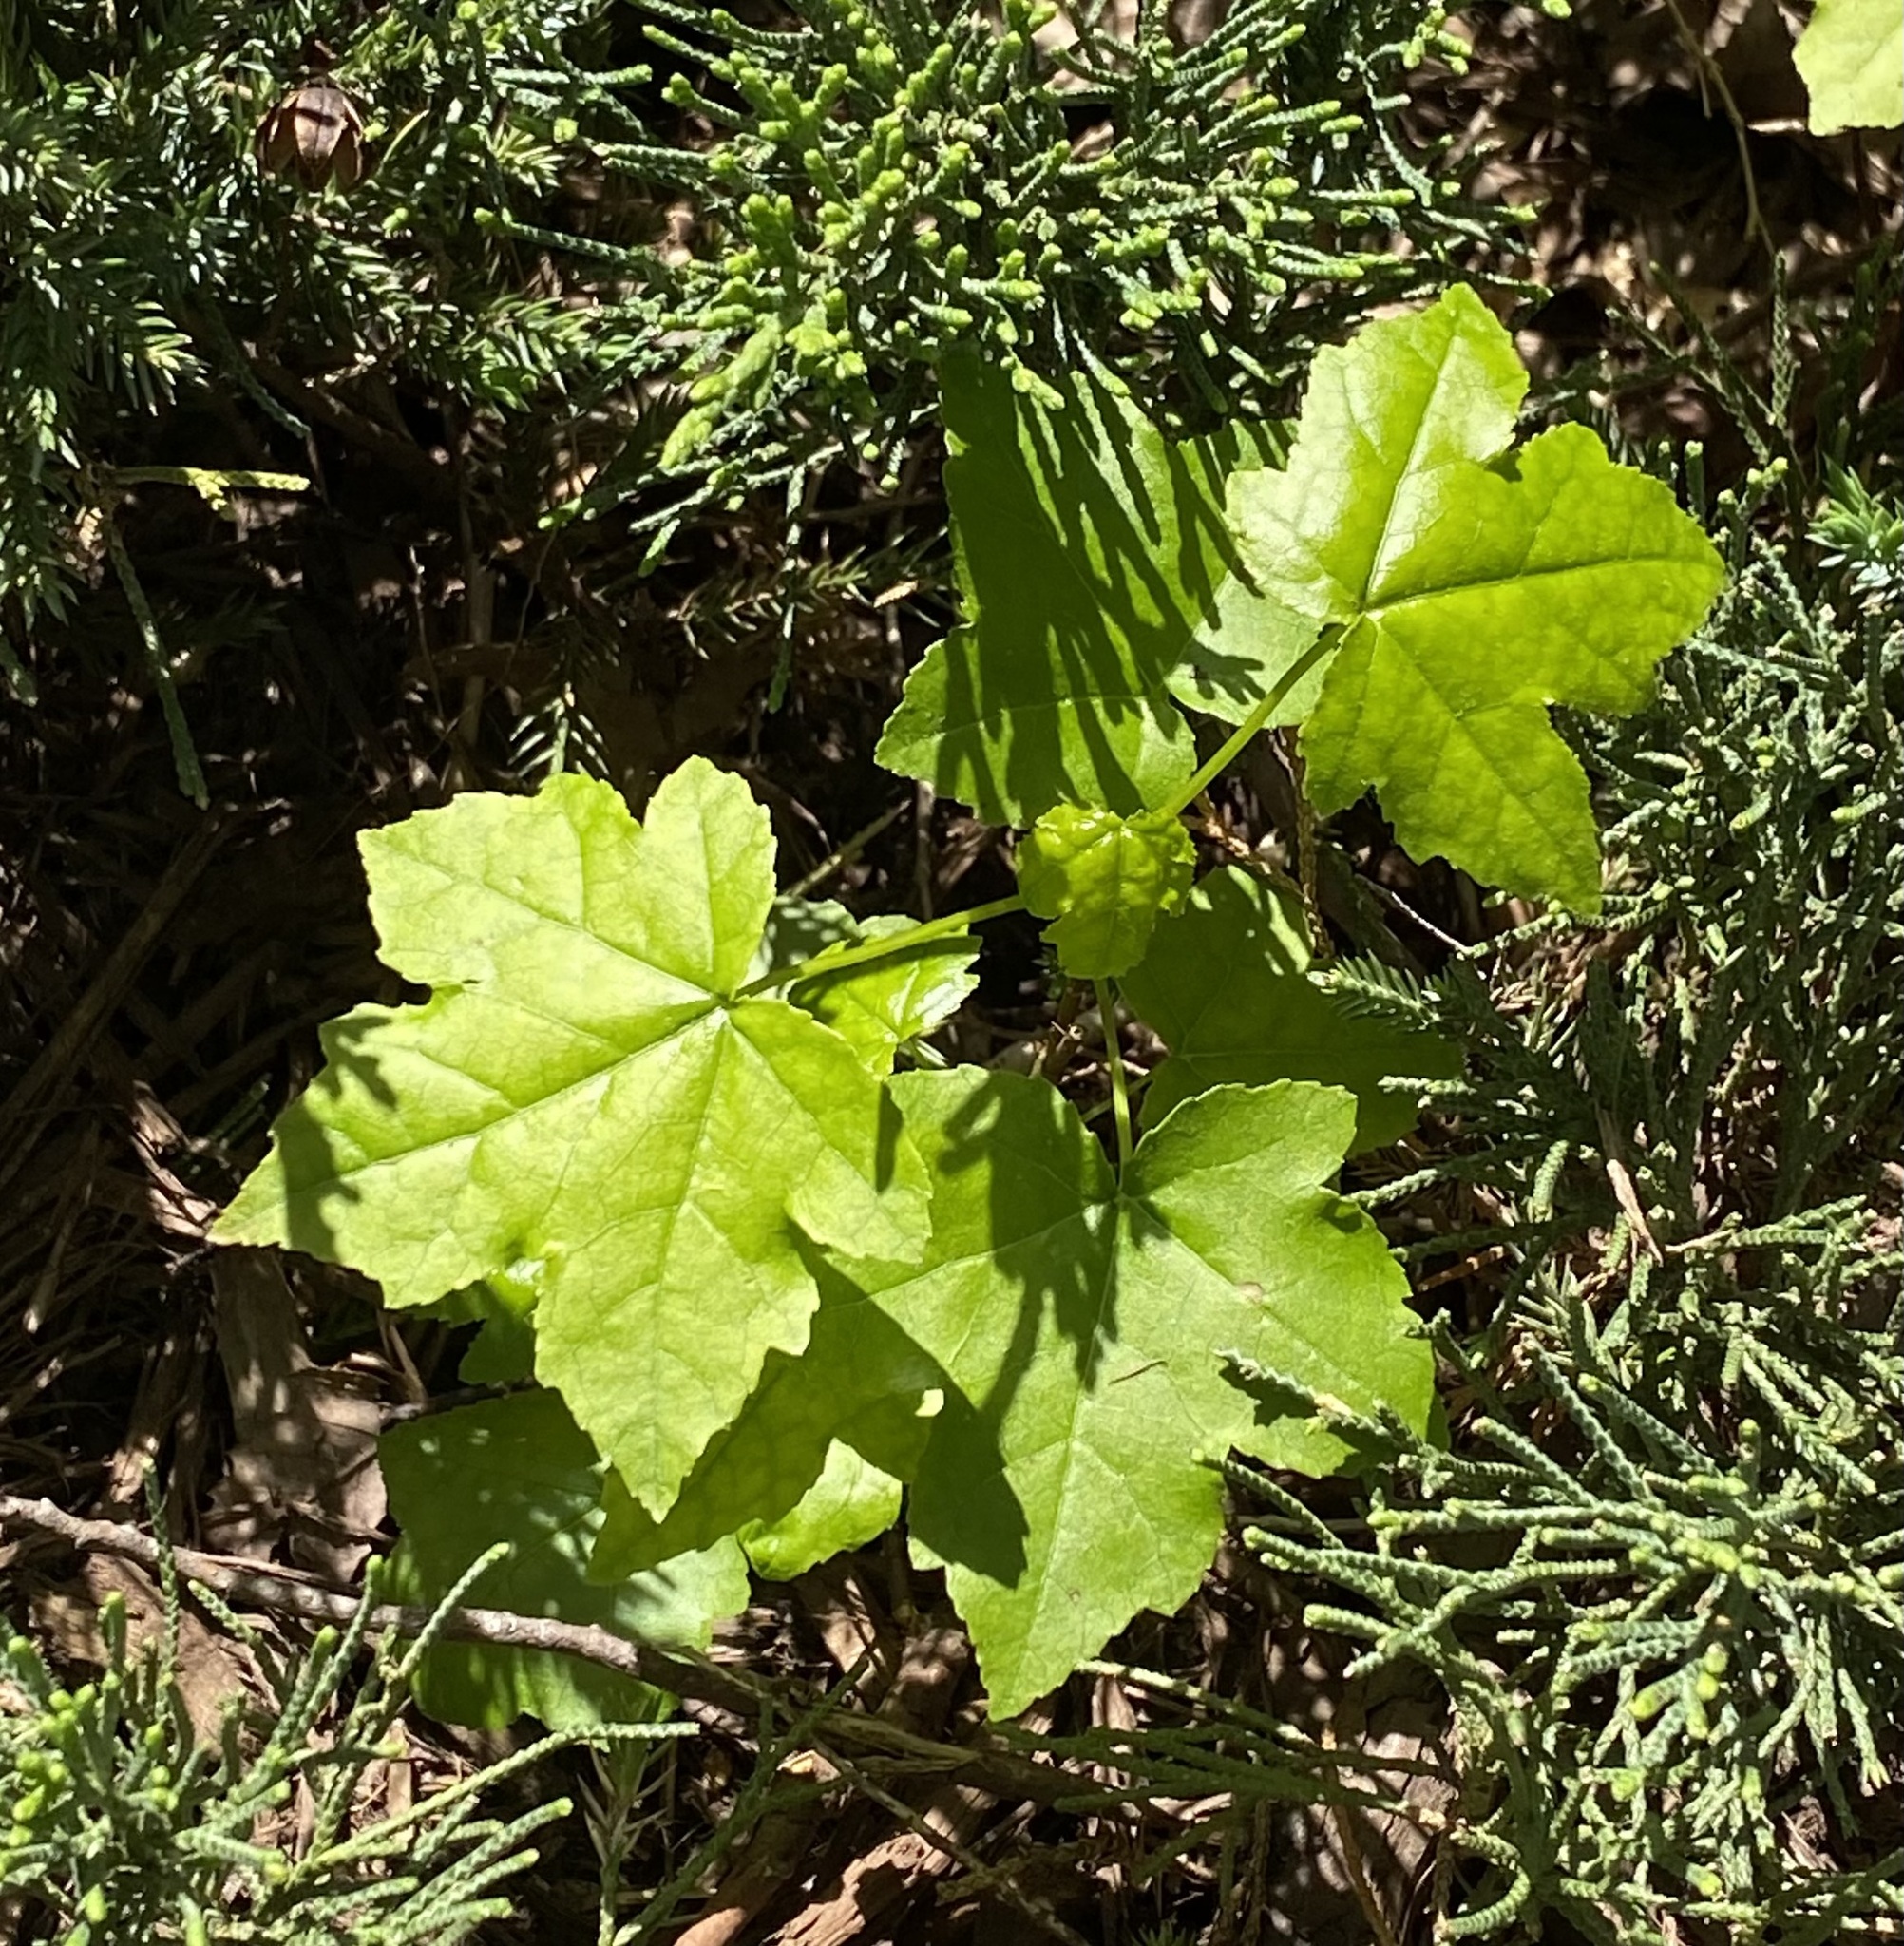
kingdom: Plantae
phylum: Tracheophyta
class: Magnoliopsida
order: Saxifragales
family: Altingiaceae
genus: Liquidambar
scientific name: Liquidambar styraciflua
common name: Sweet gum
